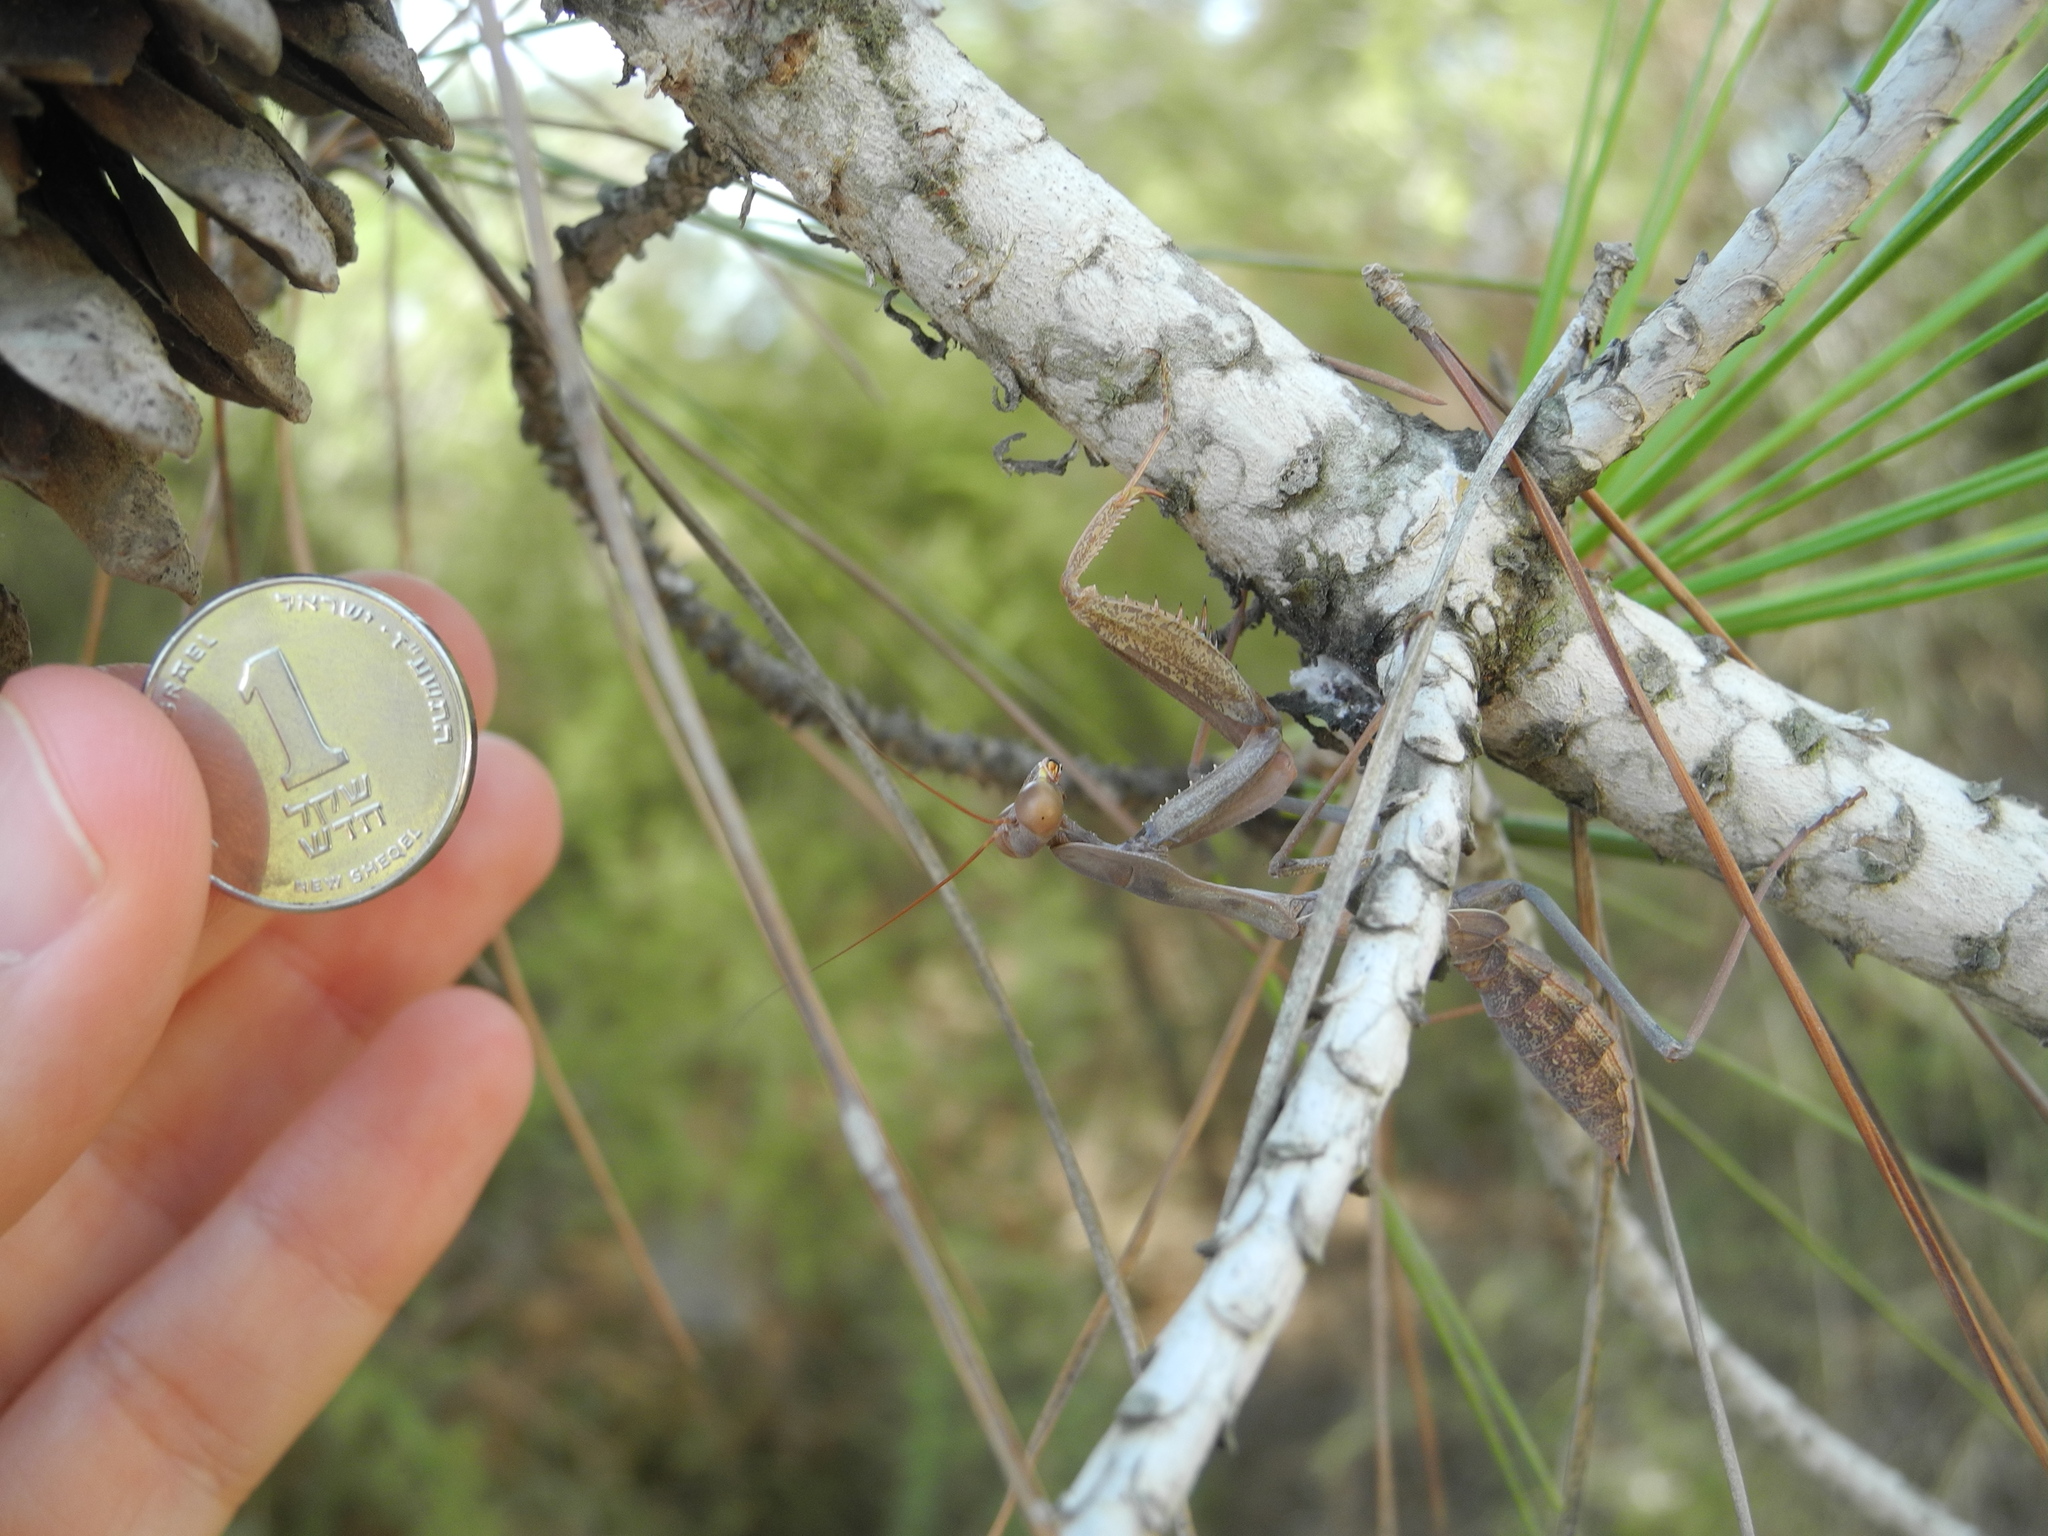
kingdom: Animalia
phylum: Arthropoda
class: Insecta
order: Mantodea
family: Mantidae
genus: Sphodromantis
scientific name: Sphodromantis viridis
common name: Giant african mantis
